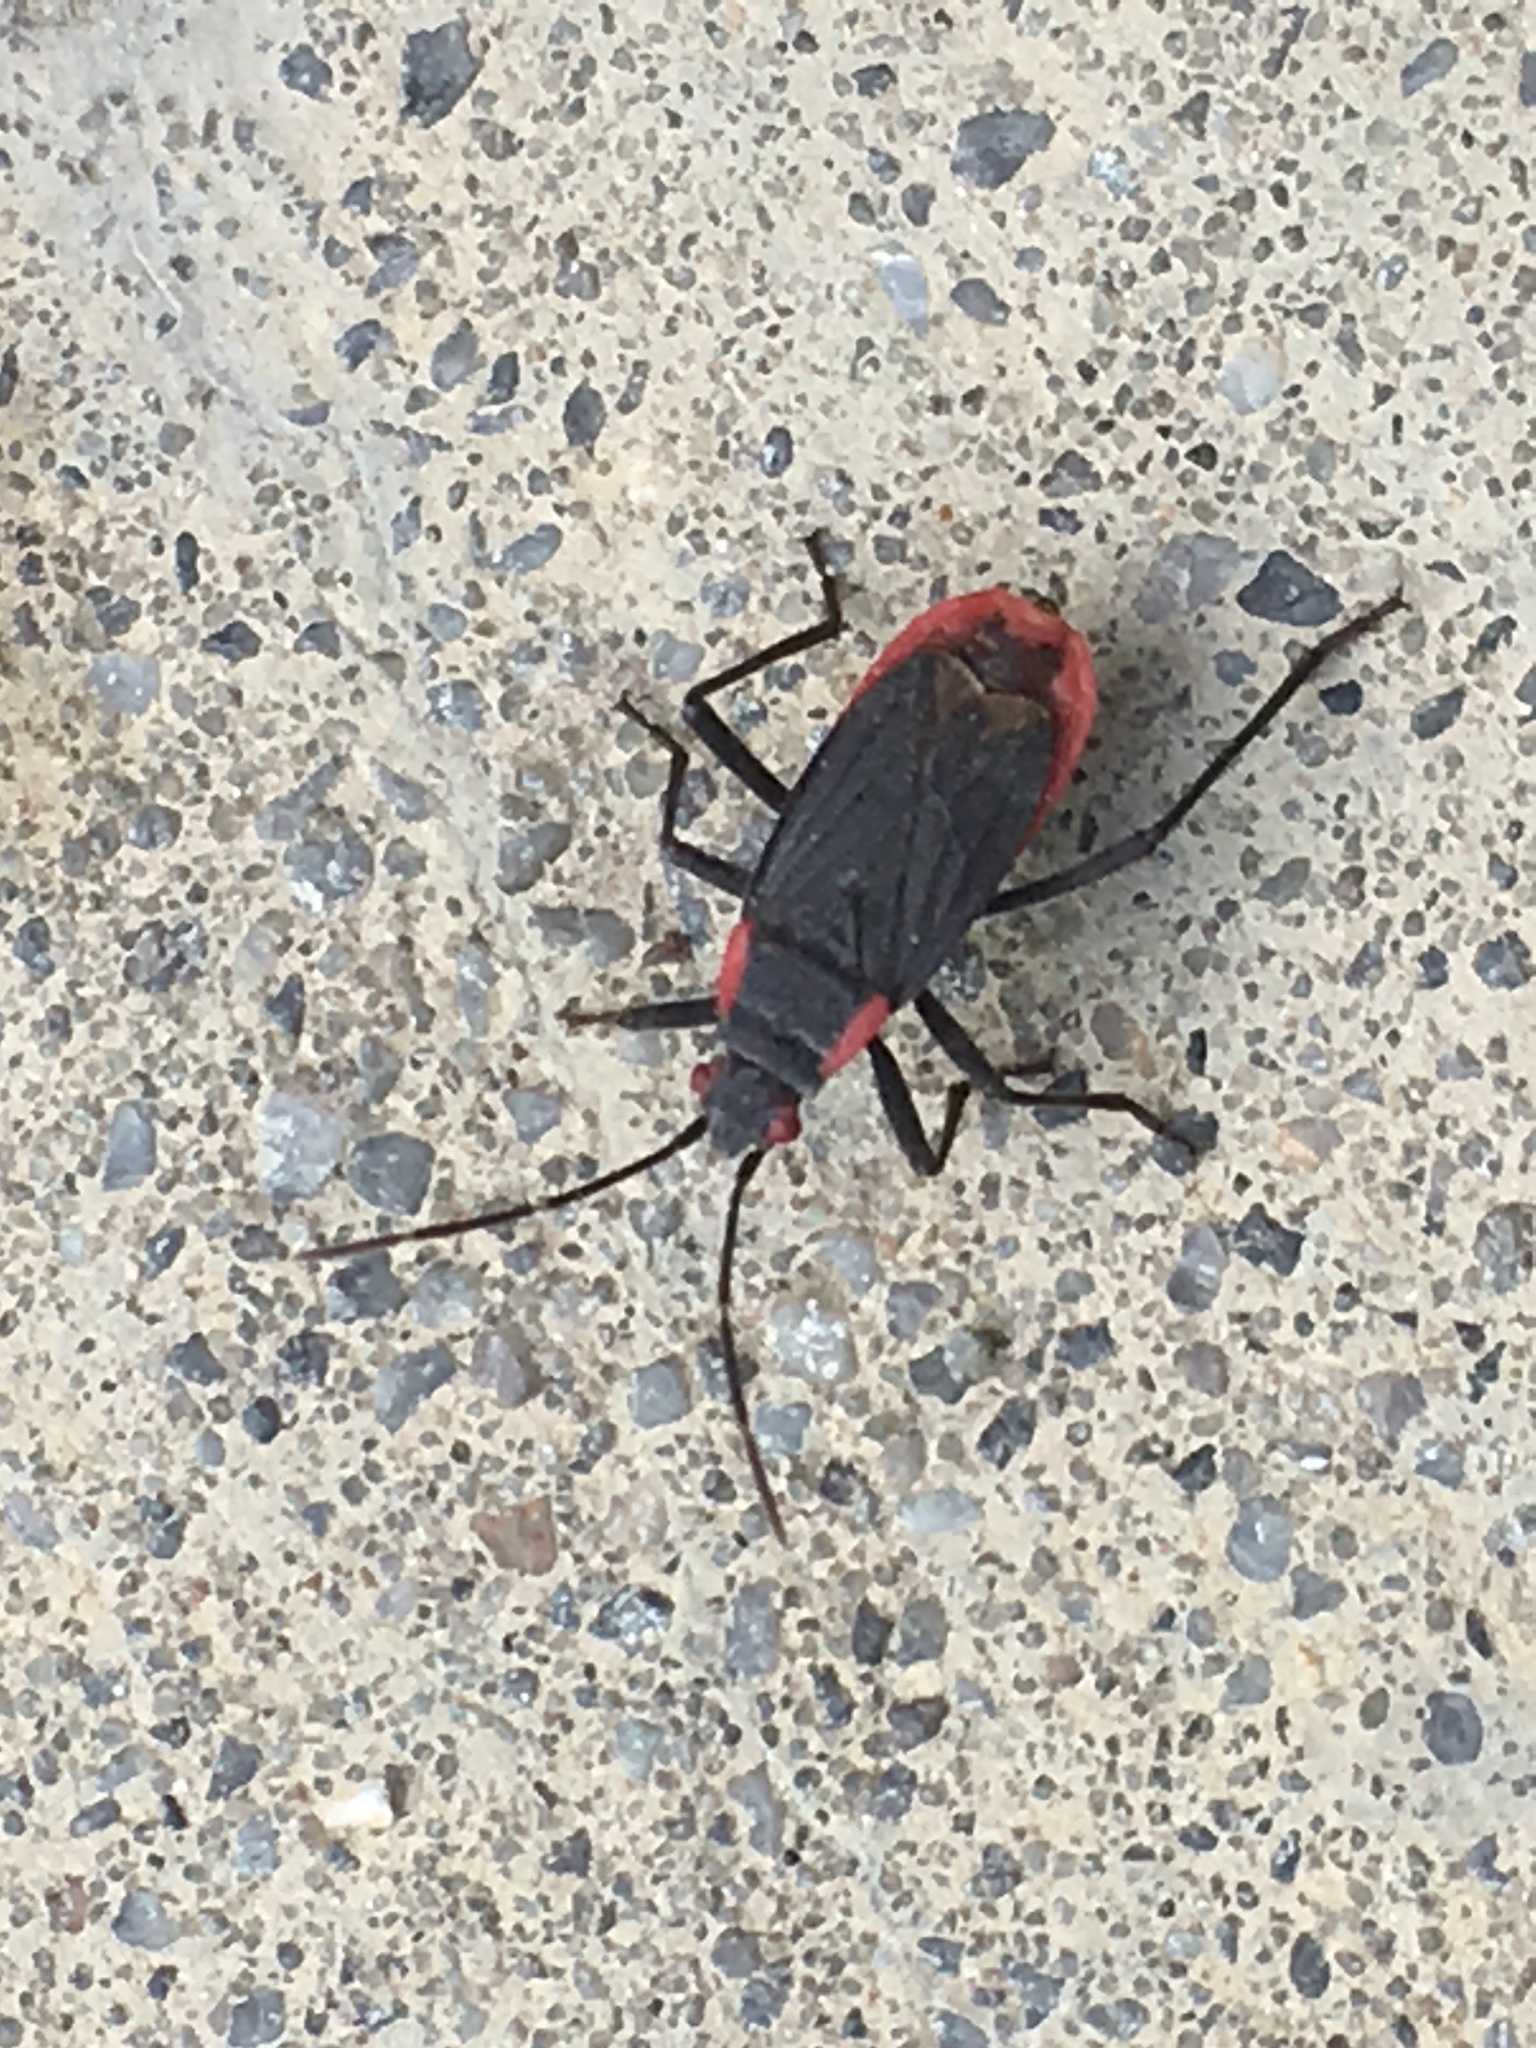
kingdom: Animalia
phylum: Arthropoda
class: Insecta
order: Hemiptera
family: Rhopalidae
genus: Jadera
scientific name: Jadera haematoloma
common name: Red-shouldered bug
